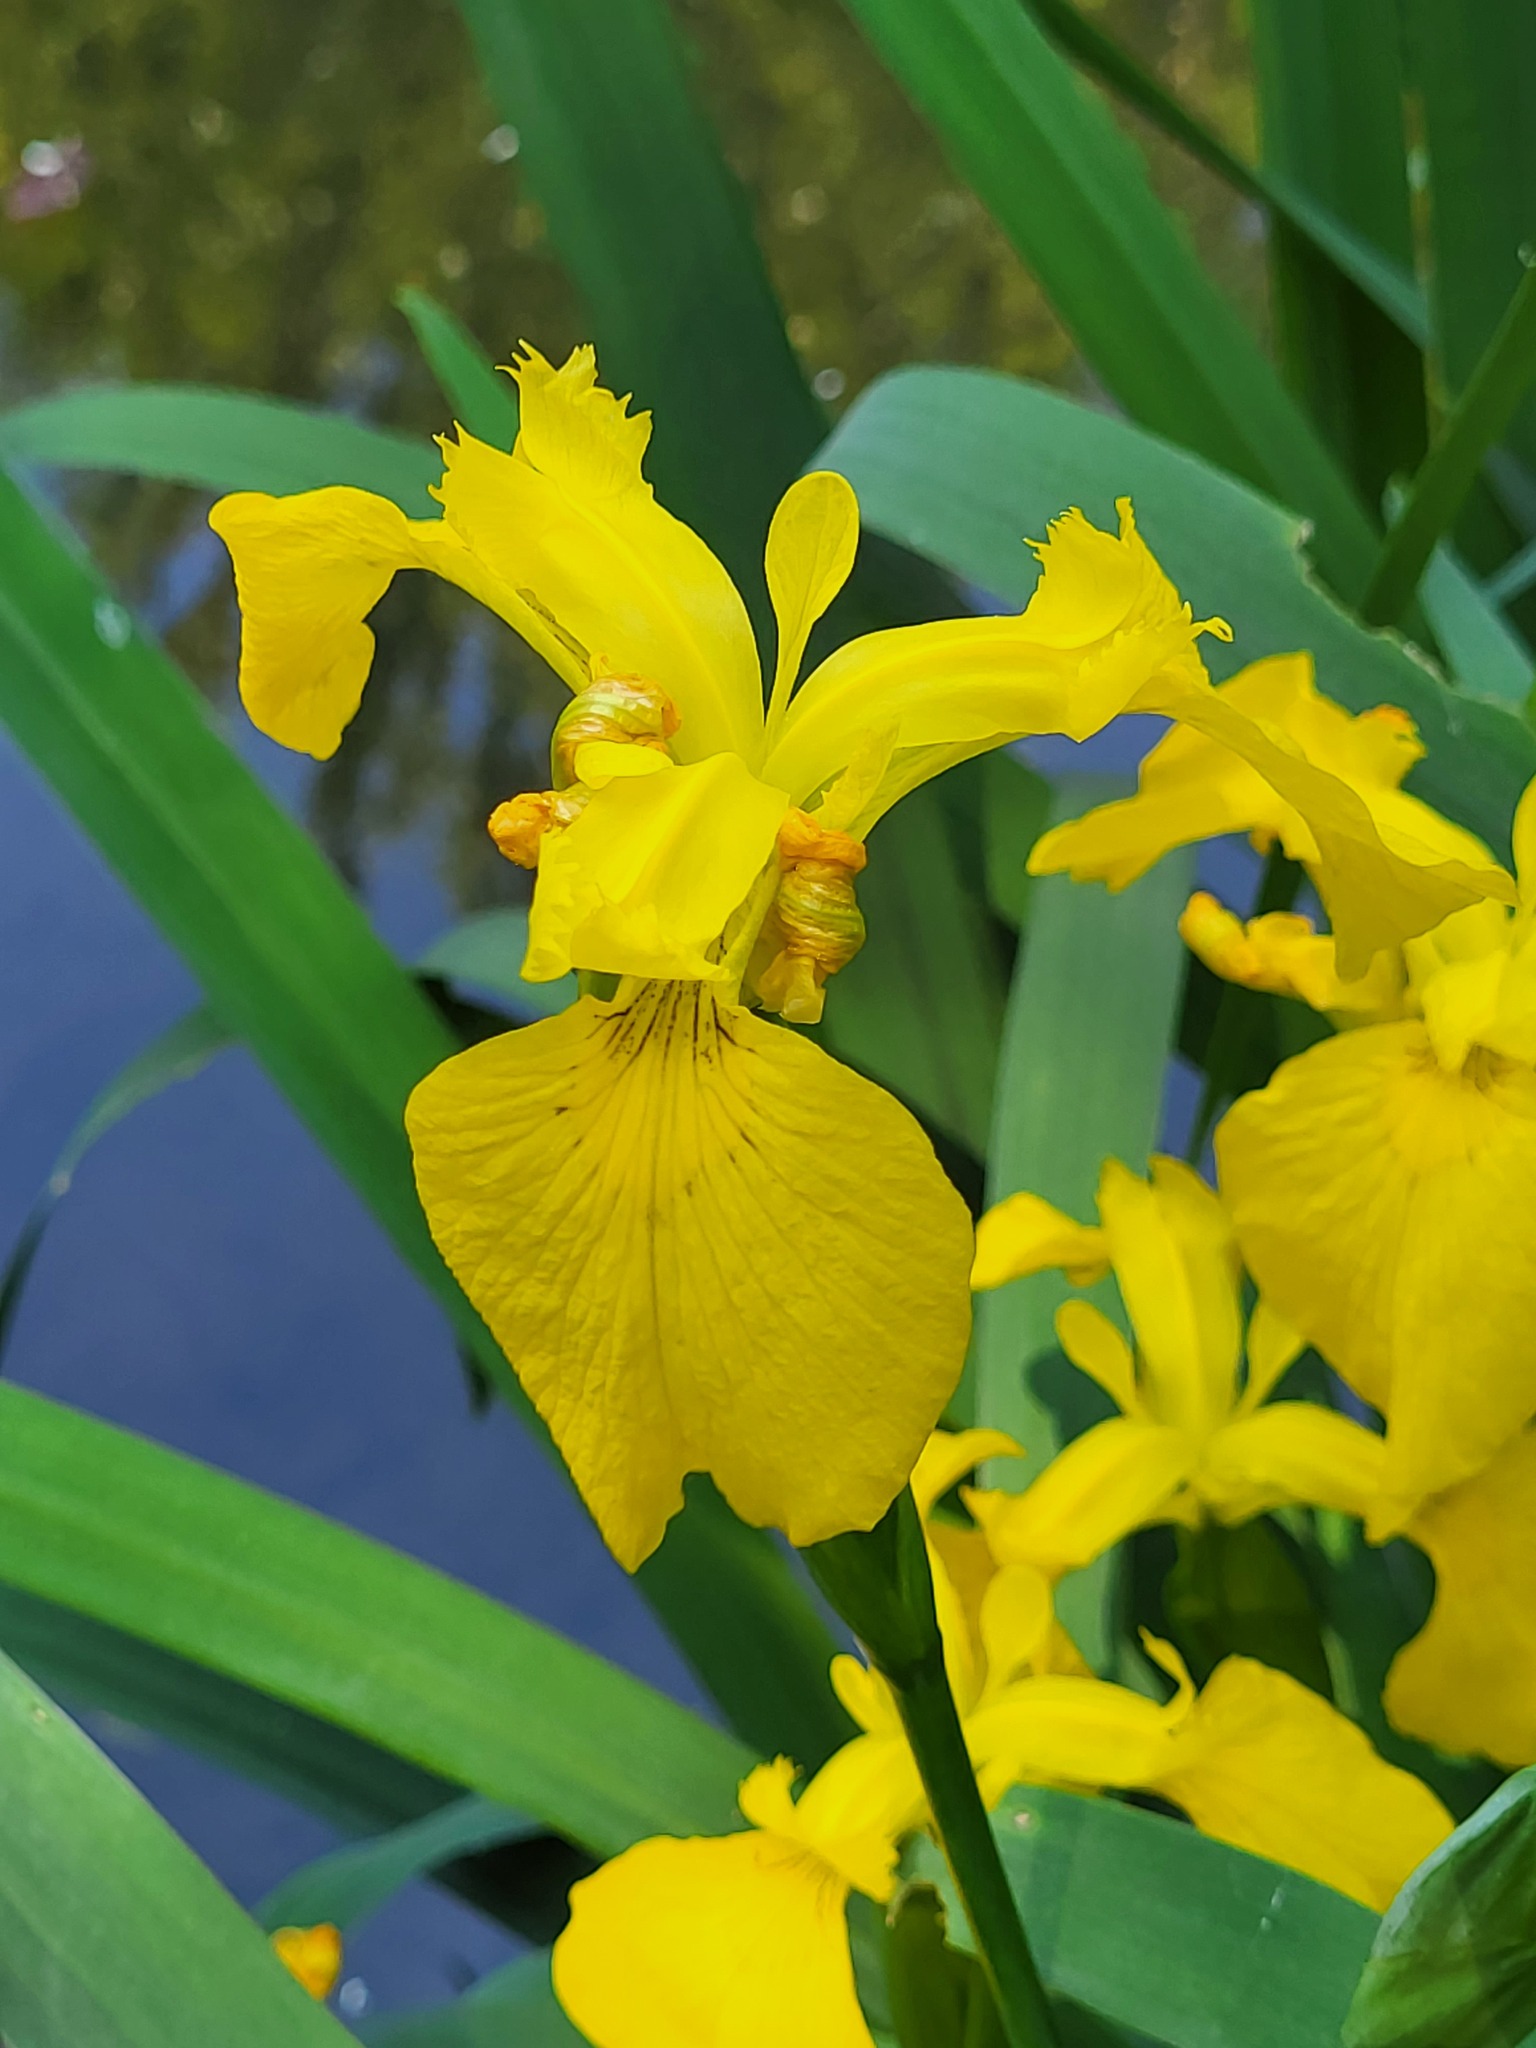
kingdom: Plantae
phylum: Tracheophyta
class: Liliopsida
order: Asparagales
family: Iridaceae
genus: Iris
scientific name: Iris pseudacorus
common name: Yellow flag
